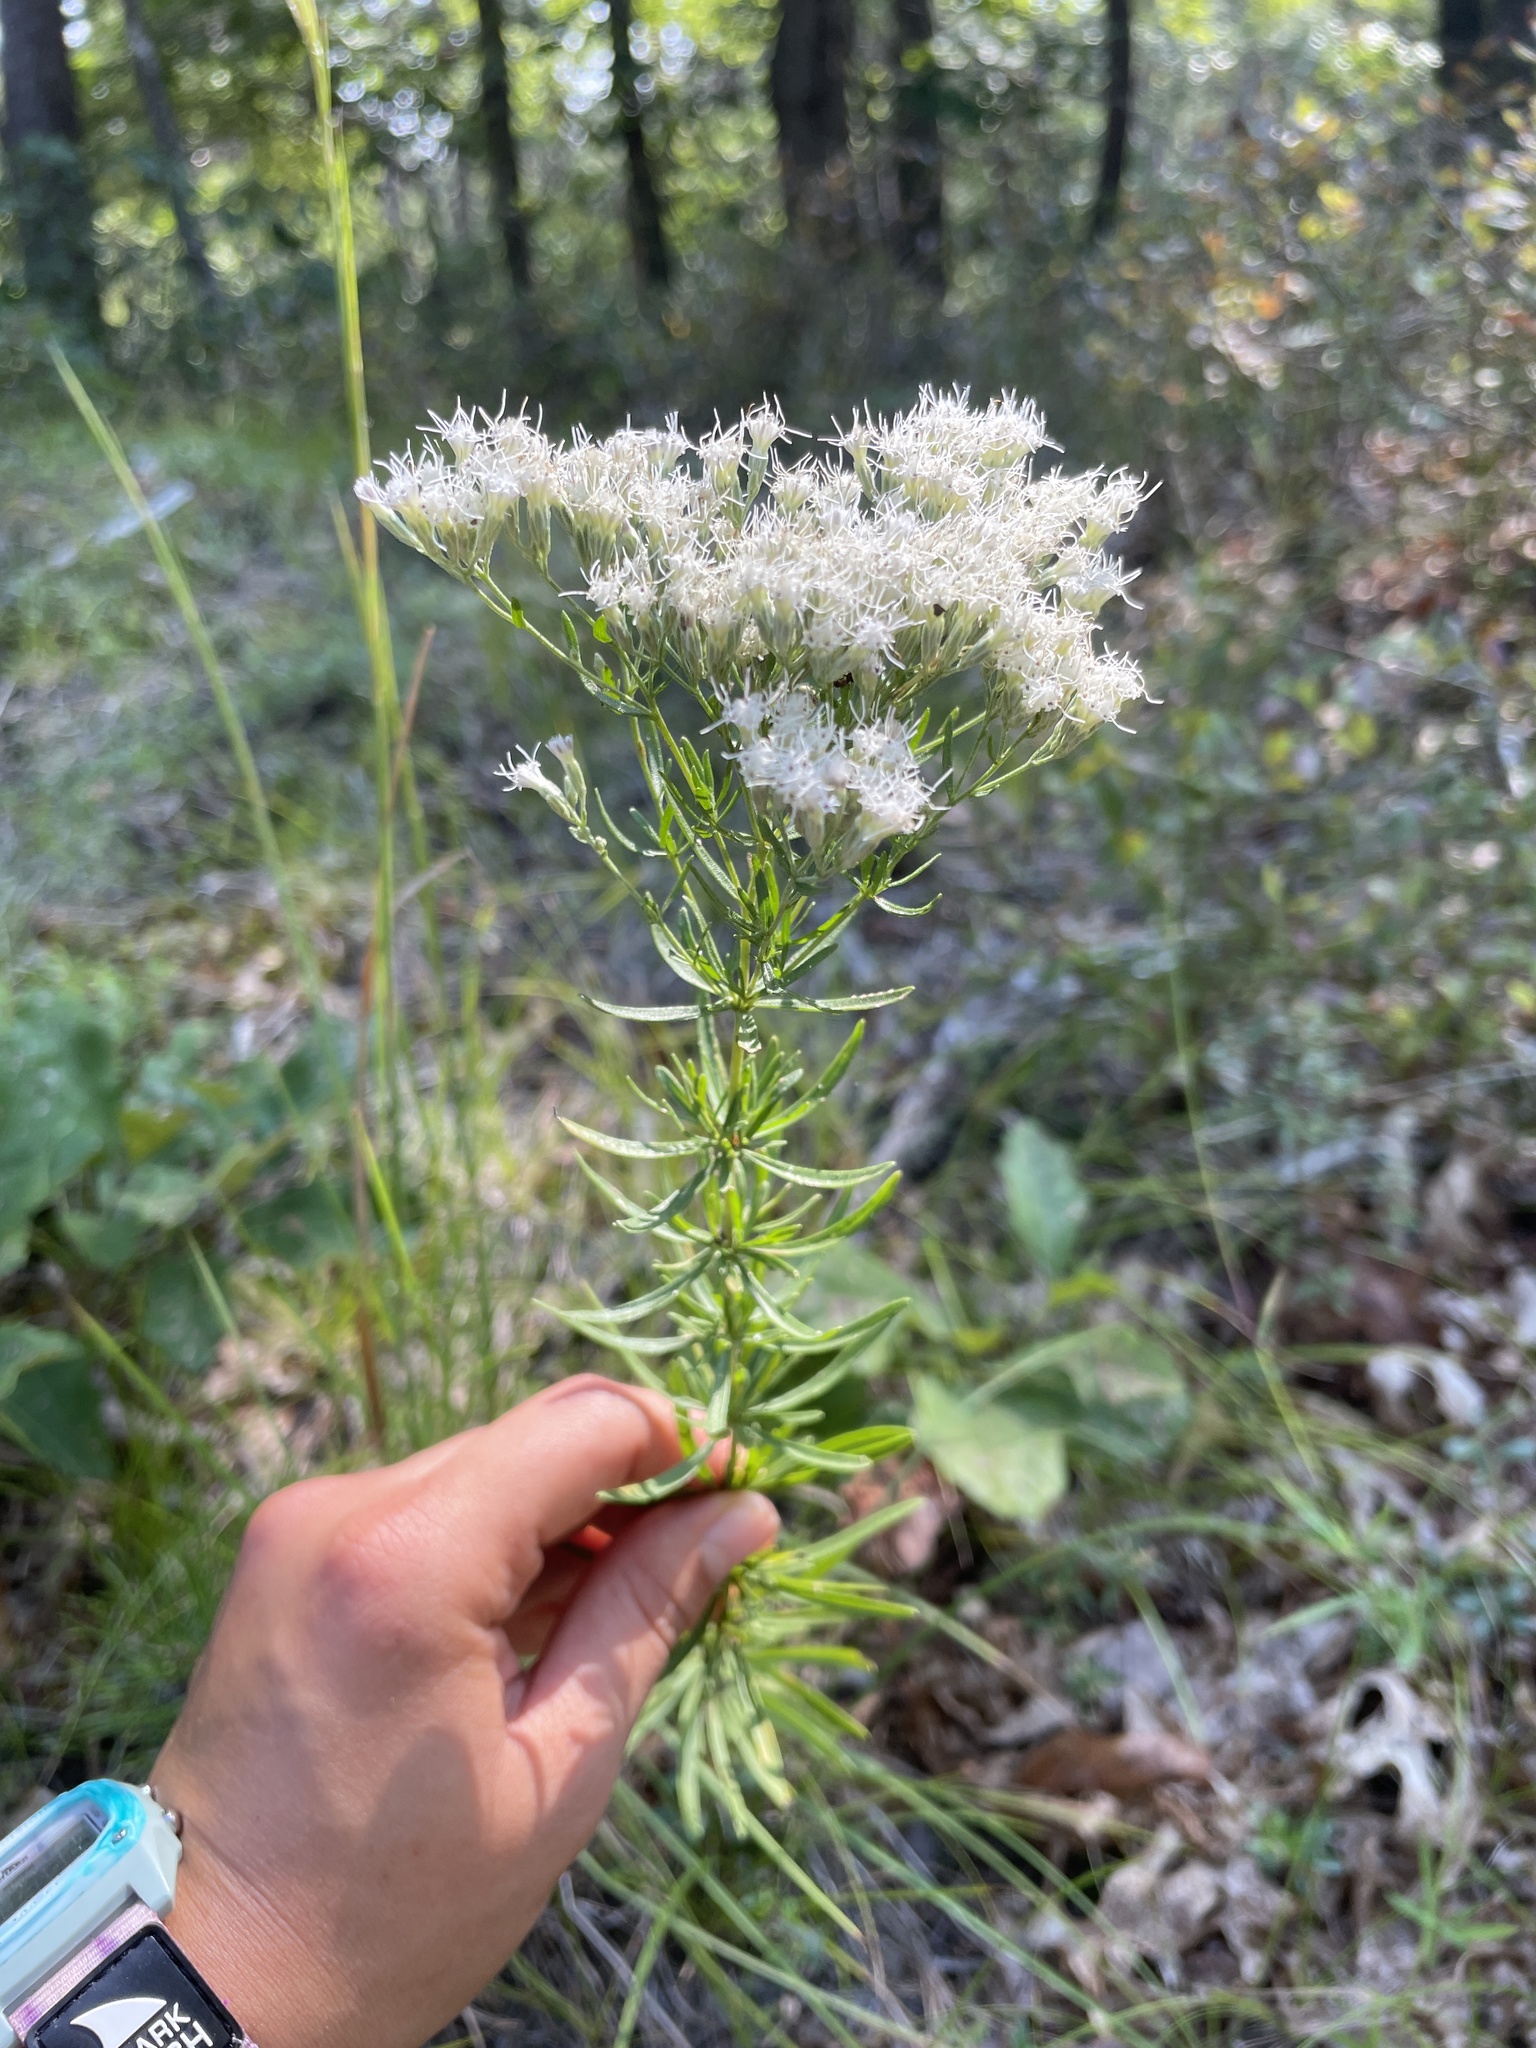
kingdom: Plantae
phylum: Tracheophyta
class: Magnoliopsida
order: Asterales
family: Asteraceae
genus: Eupatorium
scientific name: Eupatorium hyssopifolium
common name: Hyssop-leaf thoroughwort
